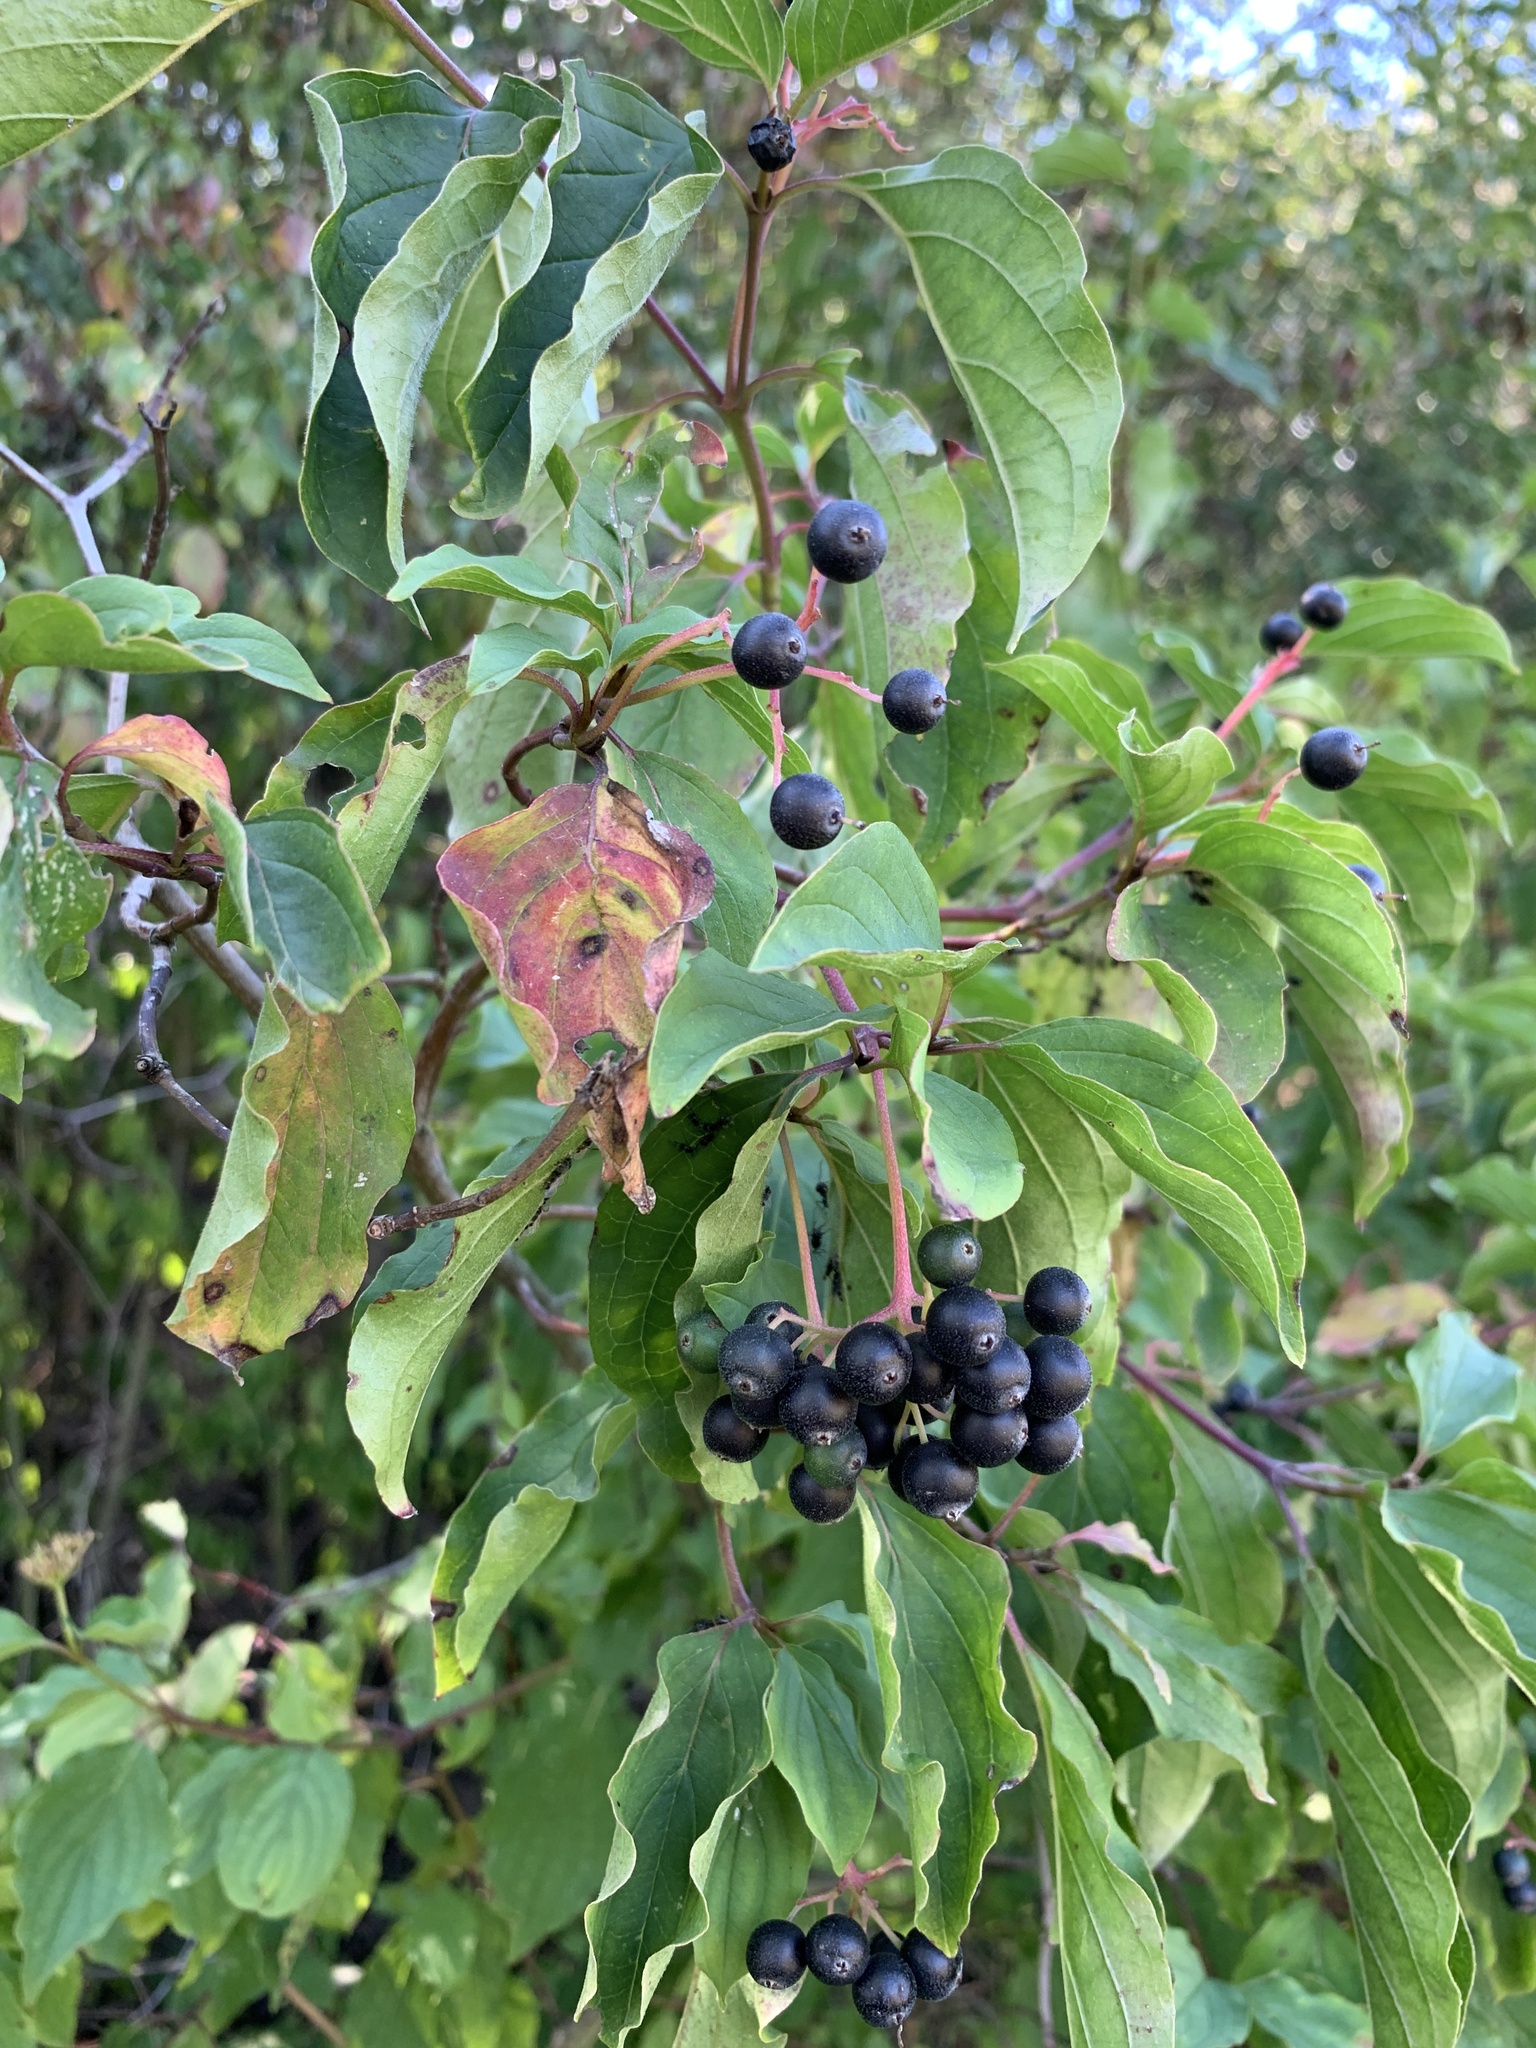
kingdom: Plantae
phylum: Tracheophyta
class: Magnoliopsida
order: Cornales
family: Cornaceae
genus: Cornus
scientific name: Cornus sanguinea
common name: Dogwood
